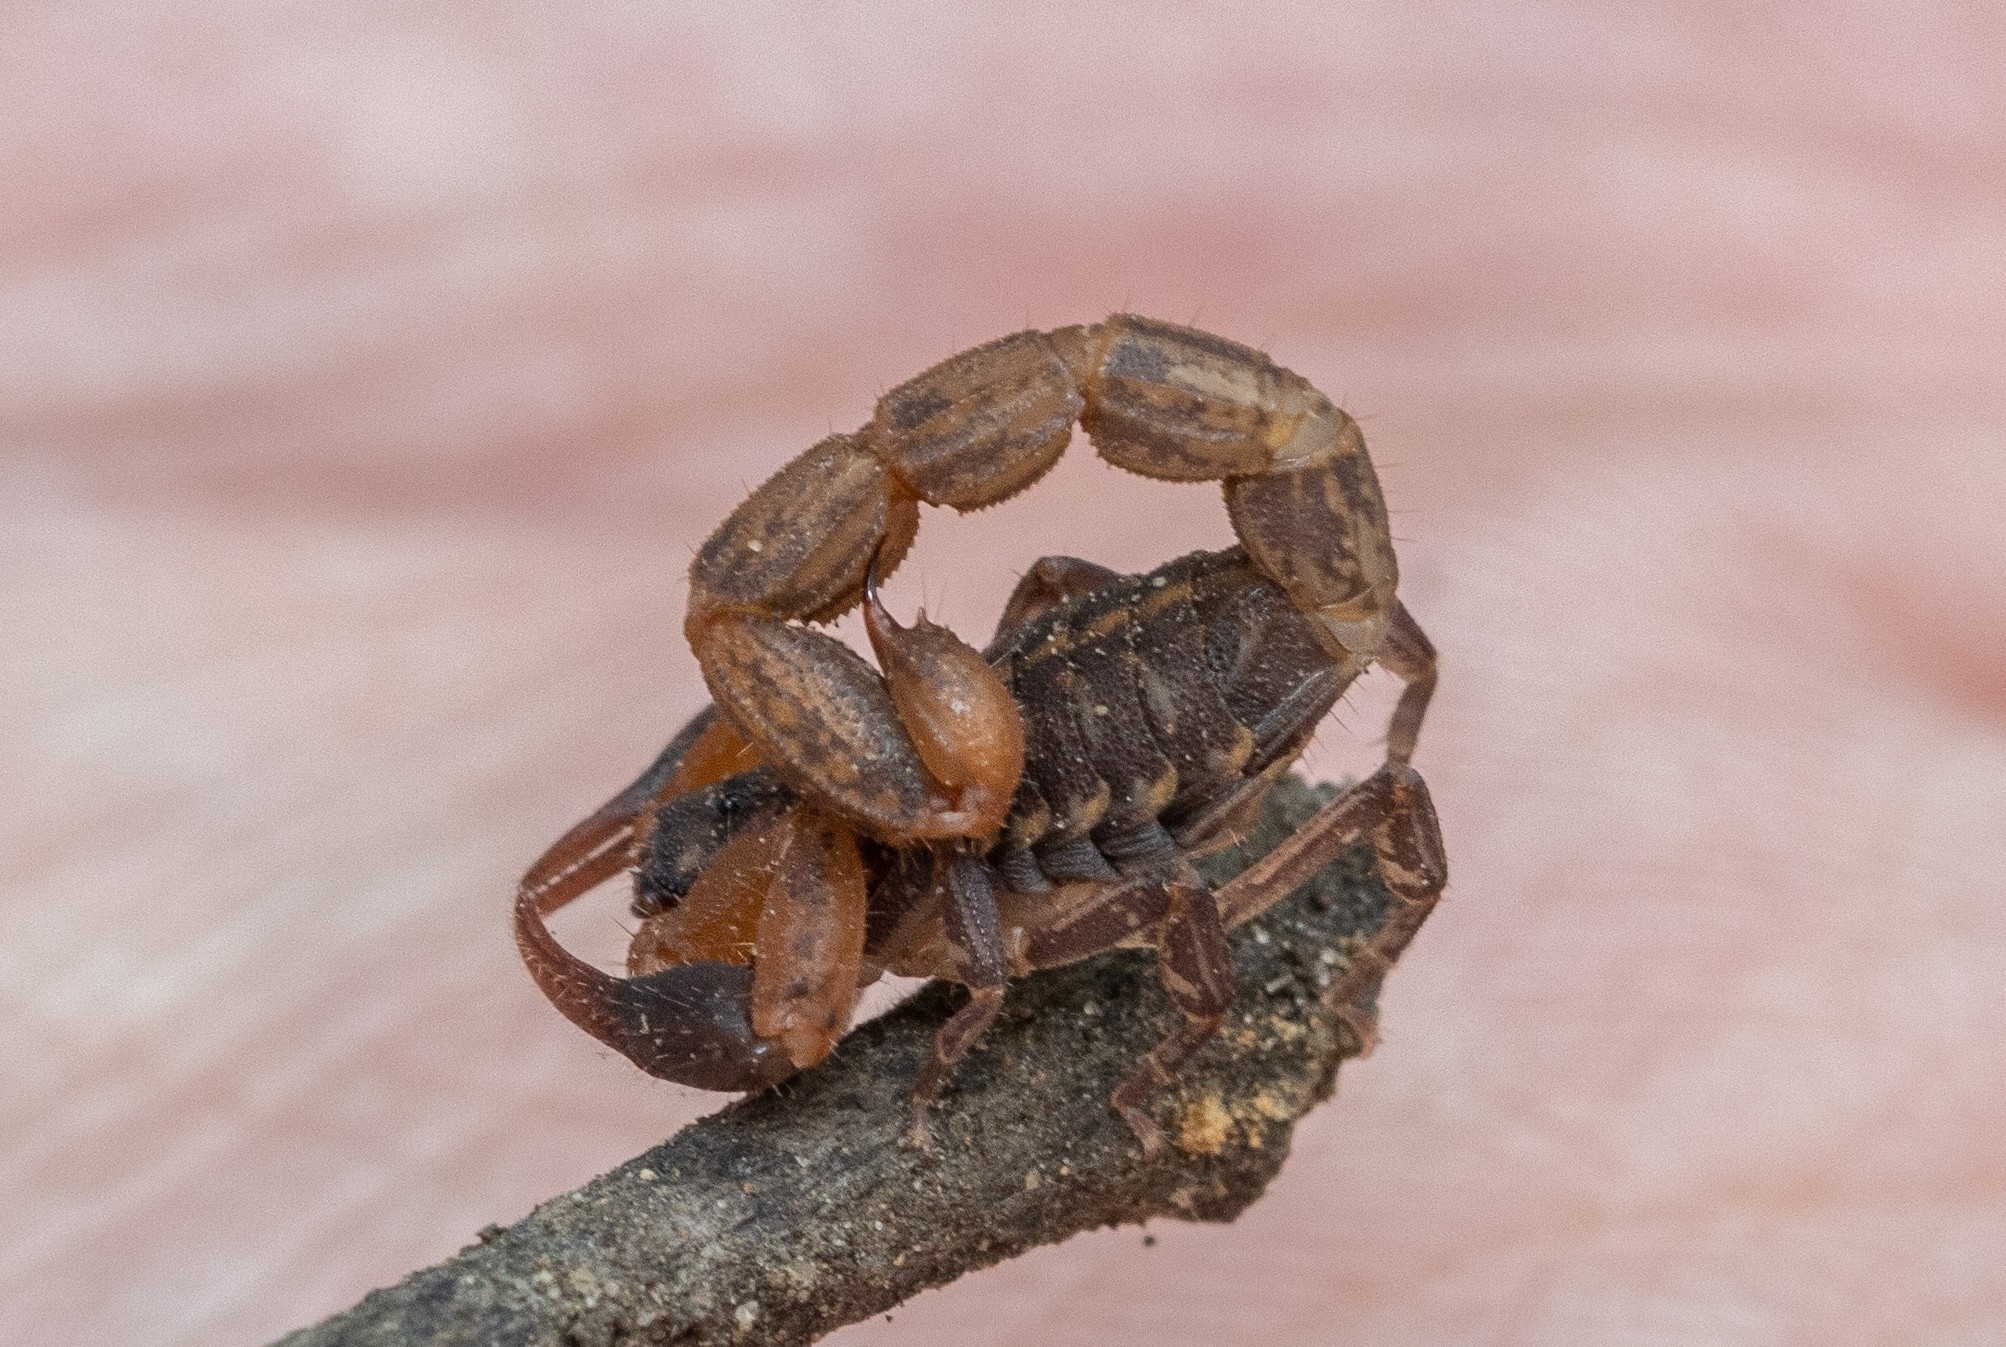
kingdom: Animalia
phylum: Arthropoda
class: Arachnida
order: Scorpiones
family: Buthidae
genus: Pseudolychas
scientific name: Pseudolychas pegleri
